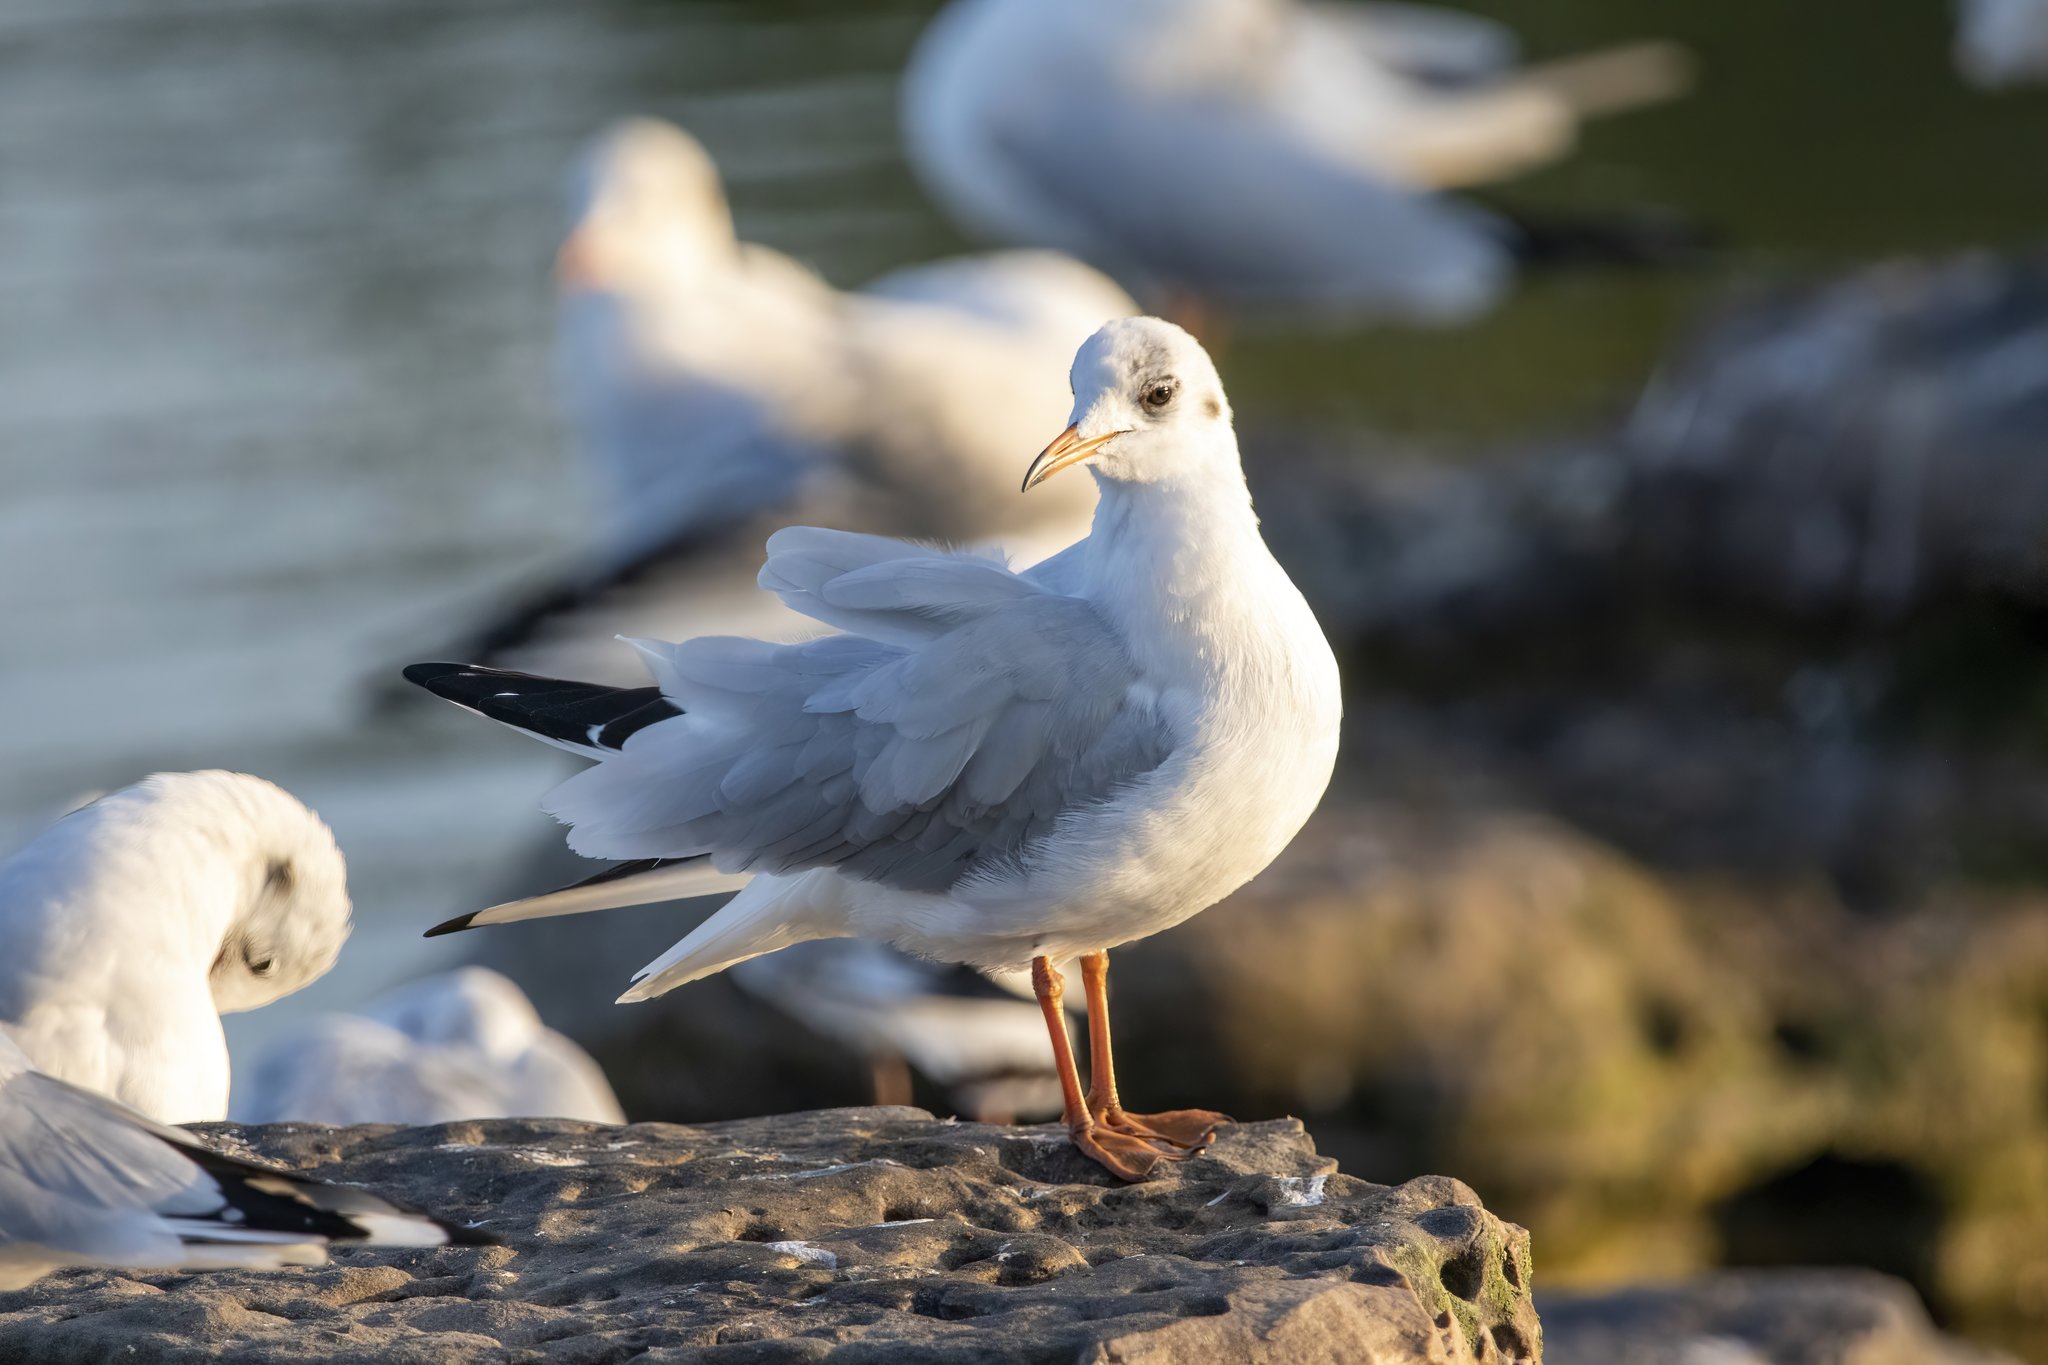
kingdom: Animalia
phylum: Chordata
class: Aves
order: Charadriiformes
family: Laridae
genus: Chroicocephalus
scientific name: Chroicocephalus ridibundus
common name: Black-headed gull
